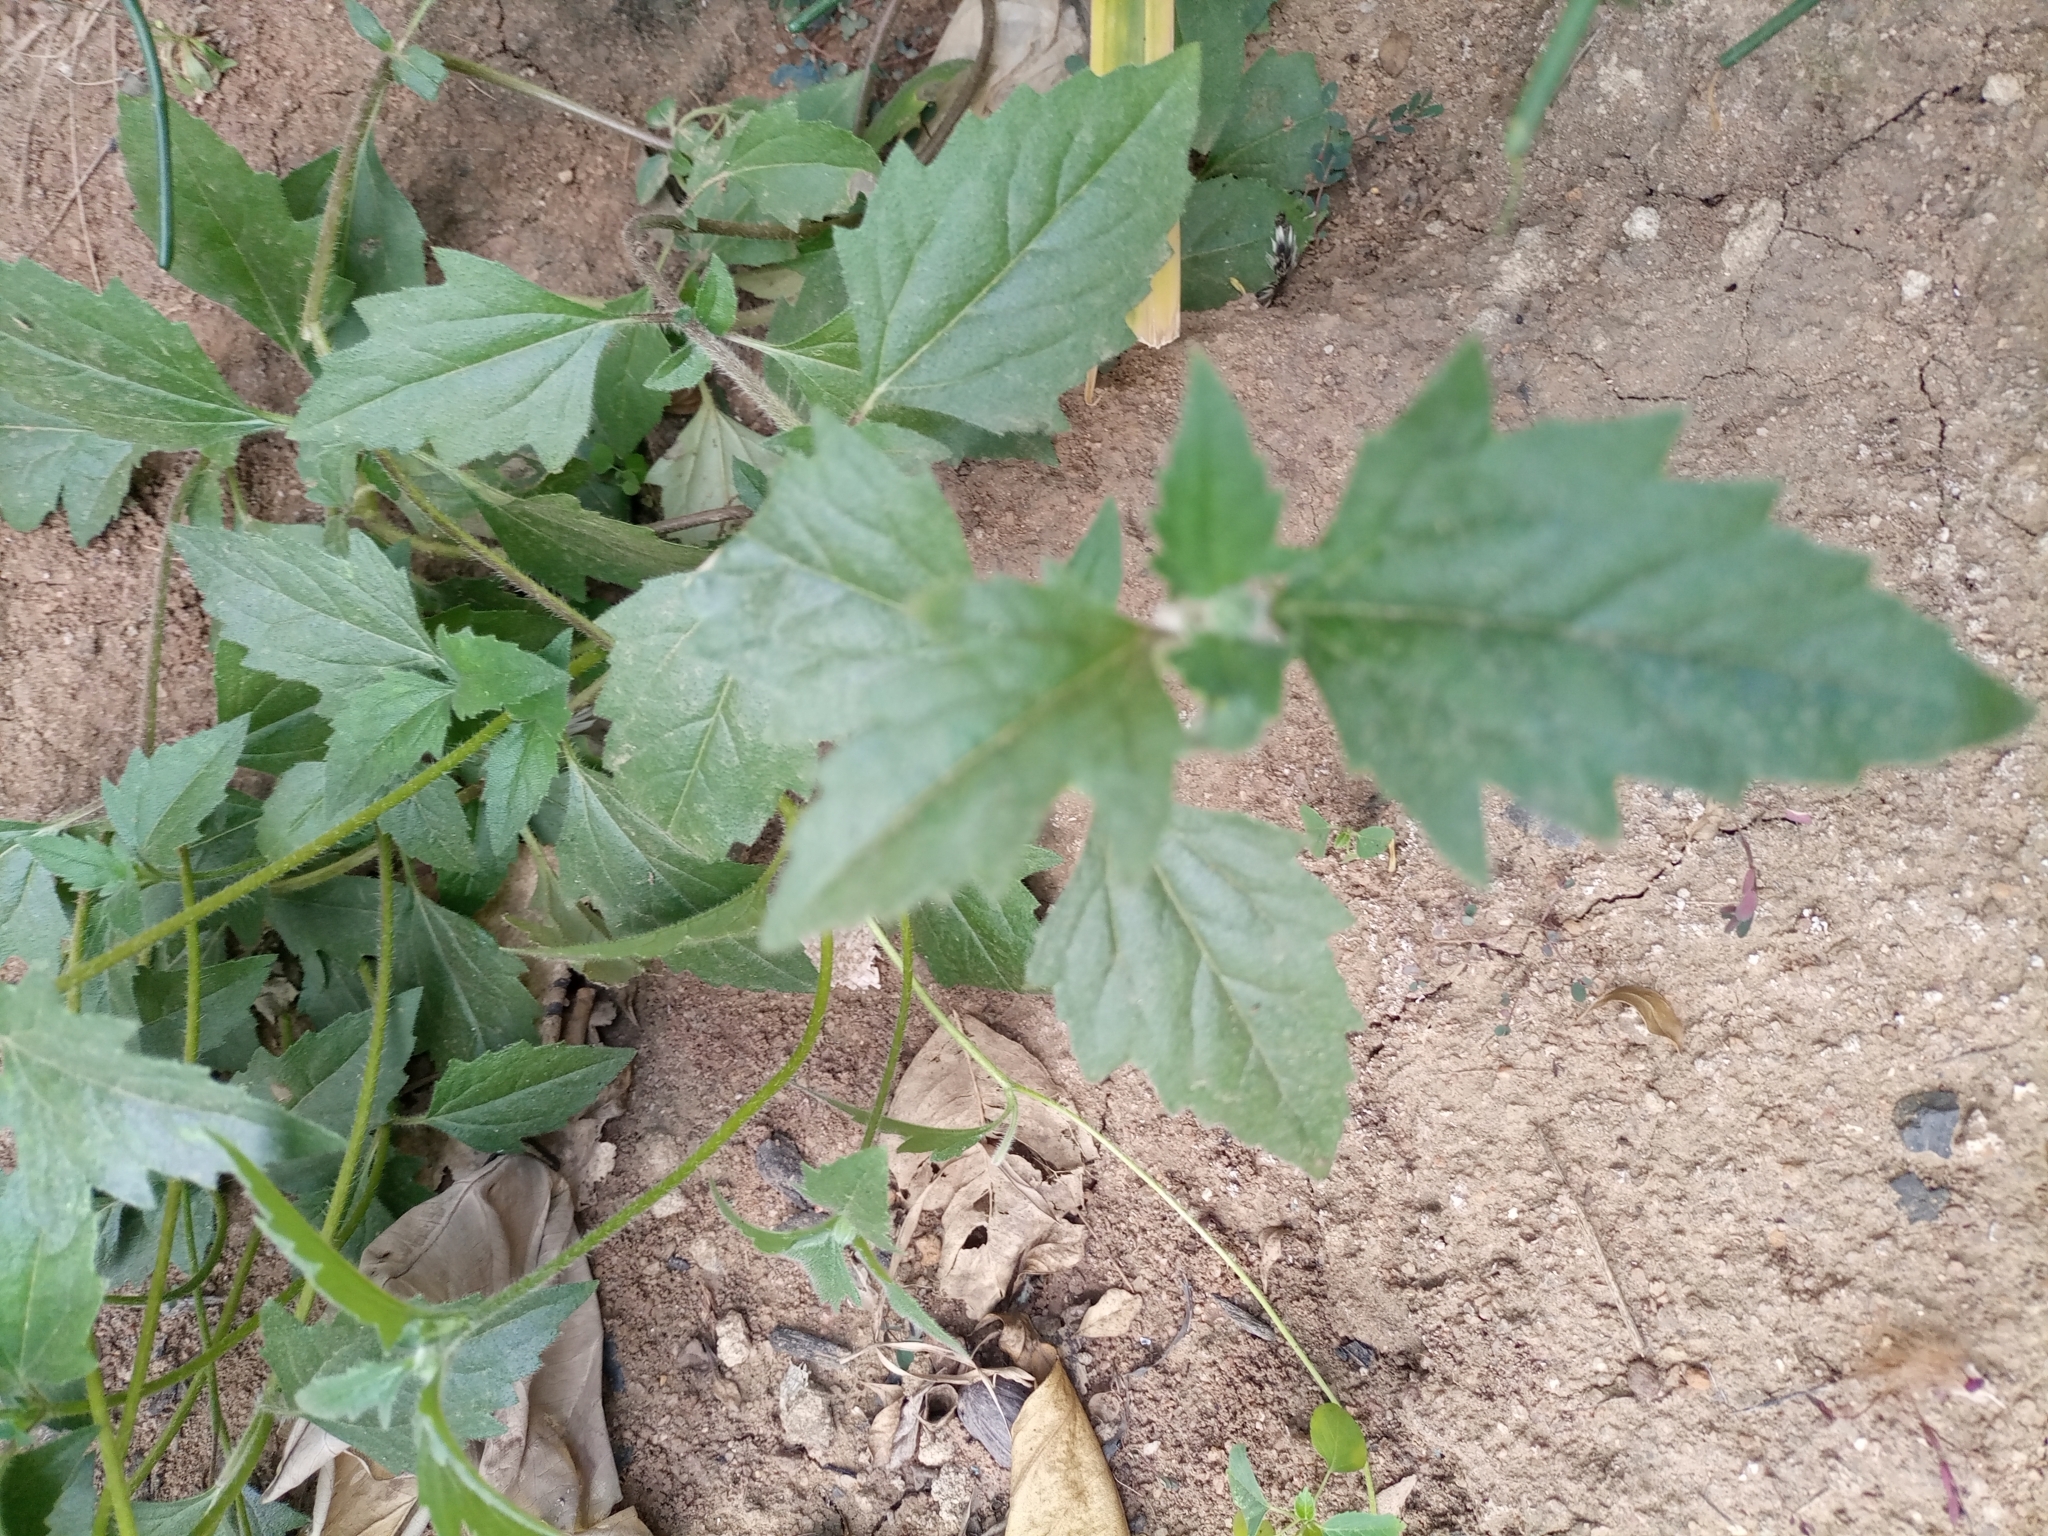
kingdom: Plantae
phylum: Tracheophyta
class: Magnoliopsida
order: Asterales
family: Asteraceae
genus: Tridax
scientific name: Tridax procumbens
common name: Coatbuttons
